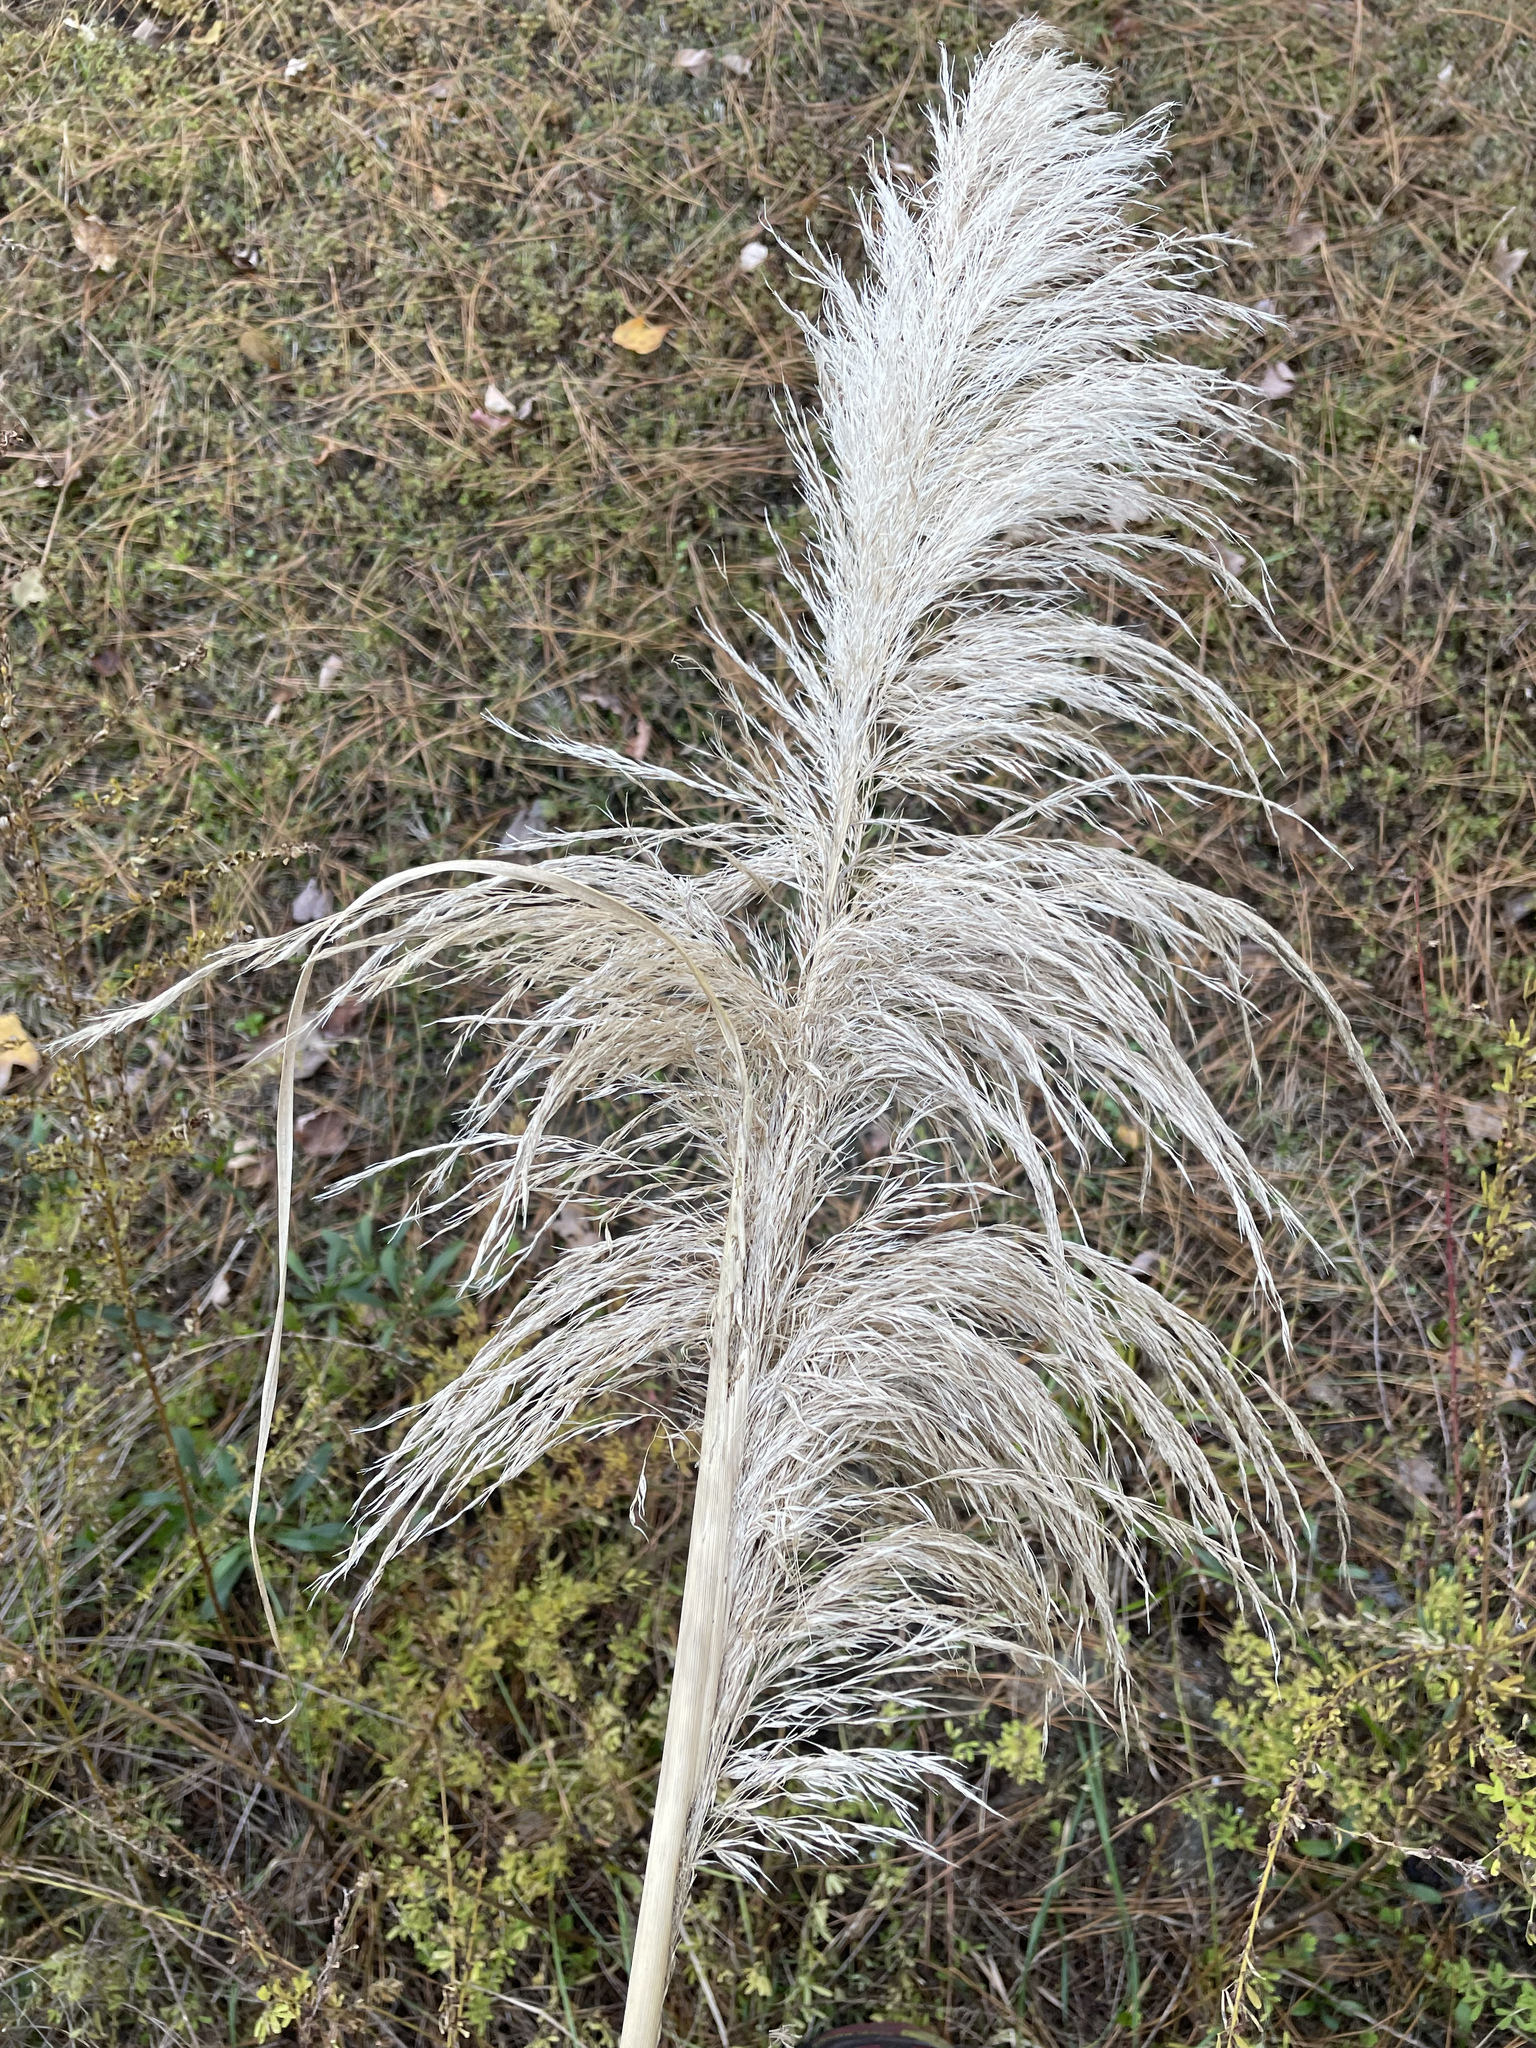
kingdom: Plantae
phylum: Tracheophyta
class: Liliopsida
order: Poales
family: Poaceae
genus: Cortaderia
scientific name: Cortaderia selloana
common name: Uruguayan pampas grass
